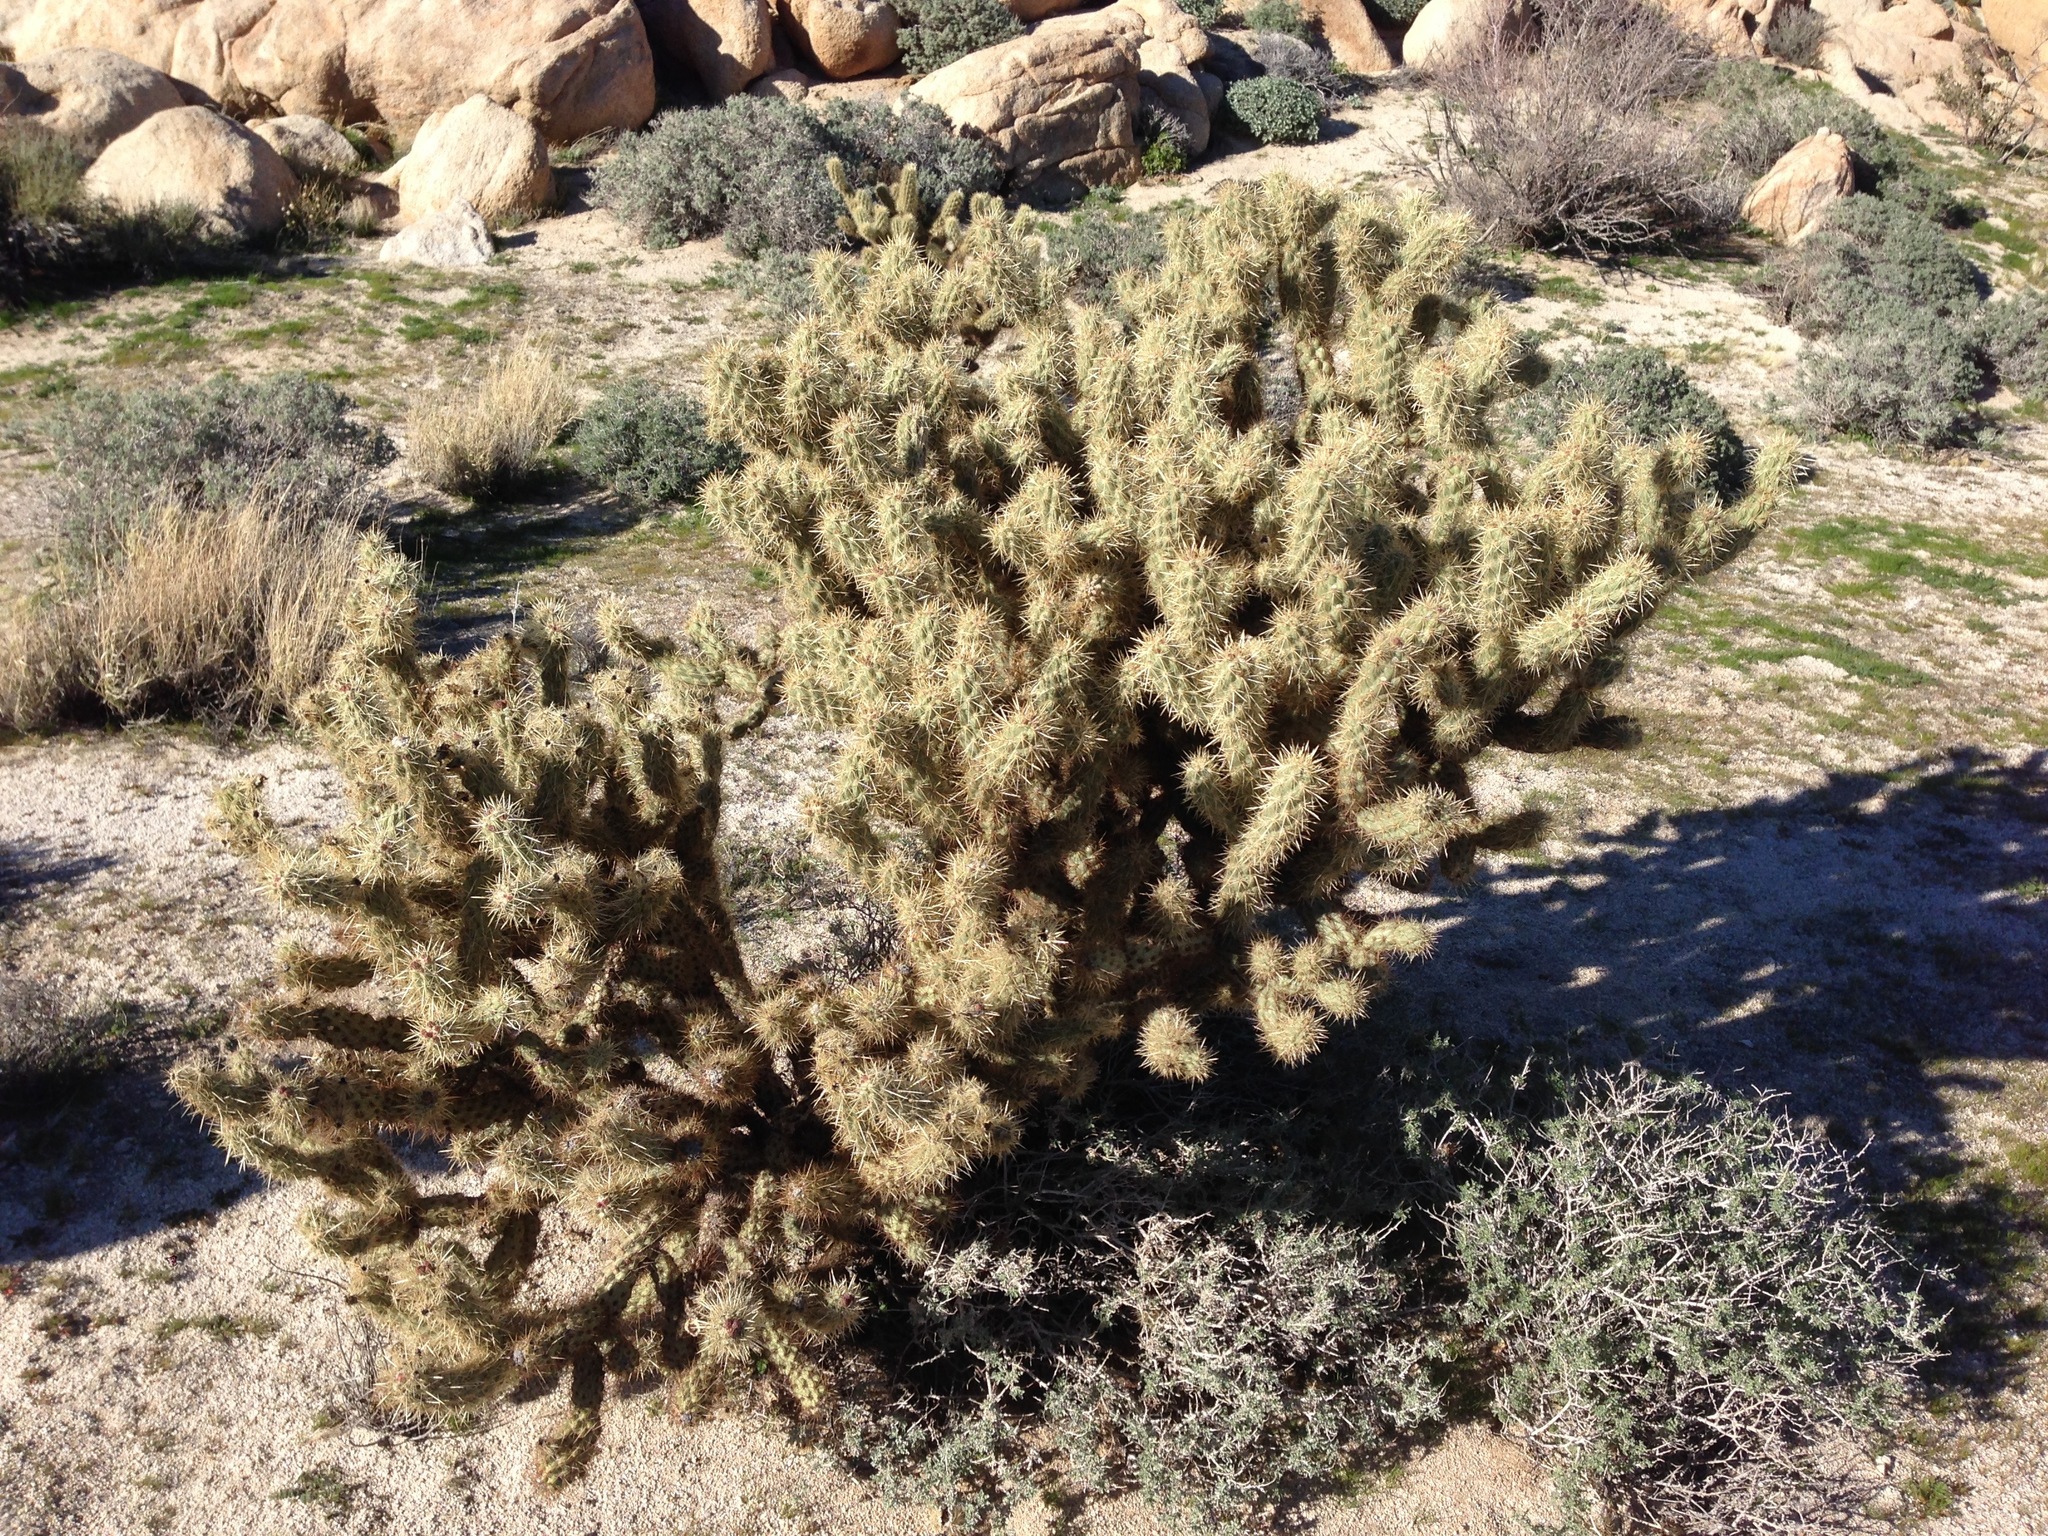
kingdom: Plantae
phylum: Tracheophyta
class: Magnoliopsida
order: Caryophyllales
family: Cactaceae
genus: Cylindropuntia
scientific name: Cylindropuntia wolfii
